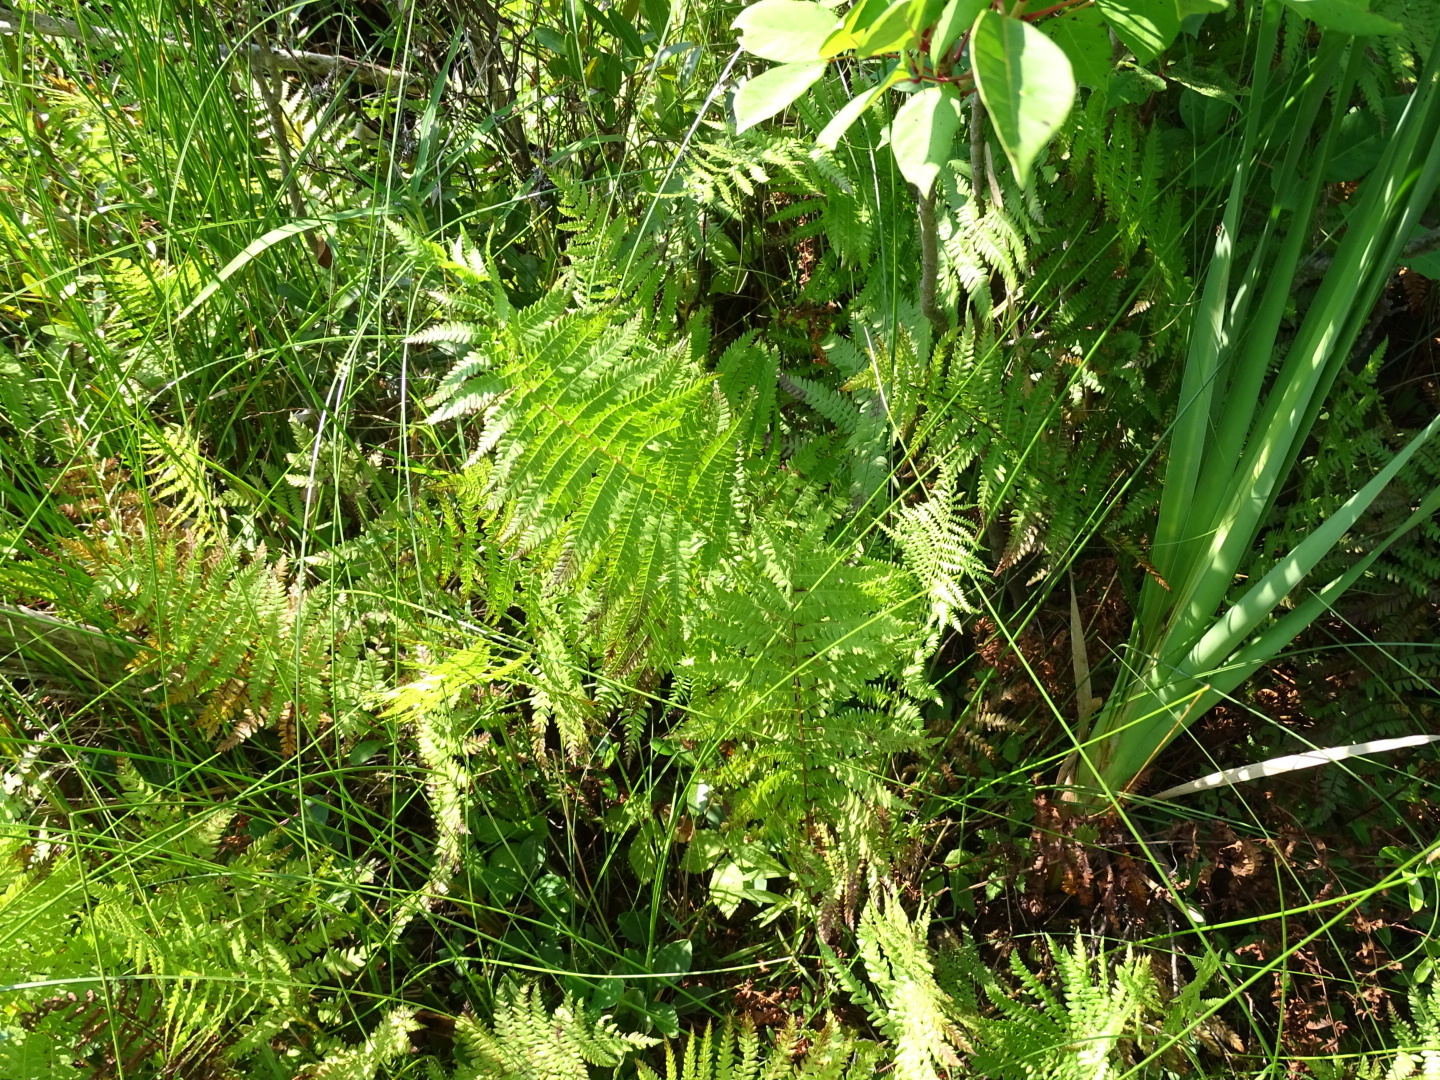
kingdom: Plantae
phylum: Tracheophyta
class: Polypodiopsida
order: Polypodiales
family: Thelypteridaceae
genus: Thelypteris
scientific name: Thelypteris palustris
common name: Marsh fern
